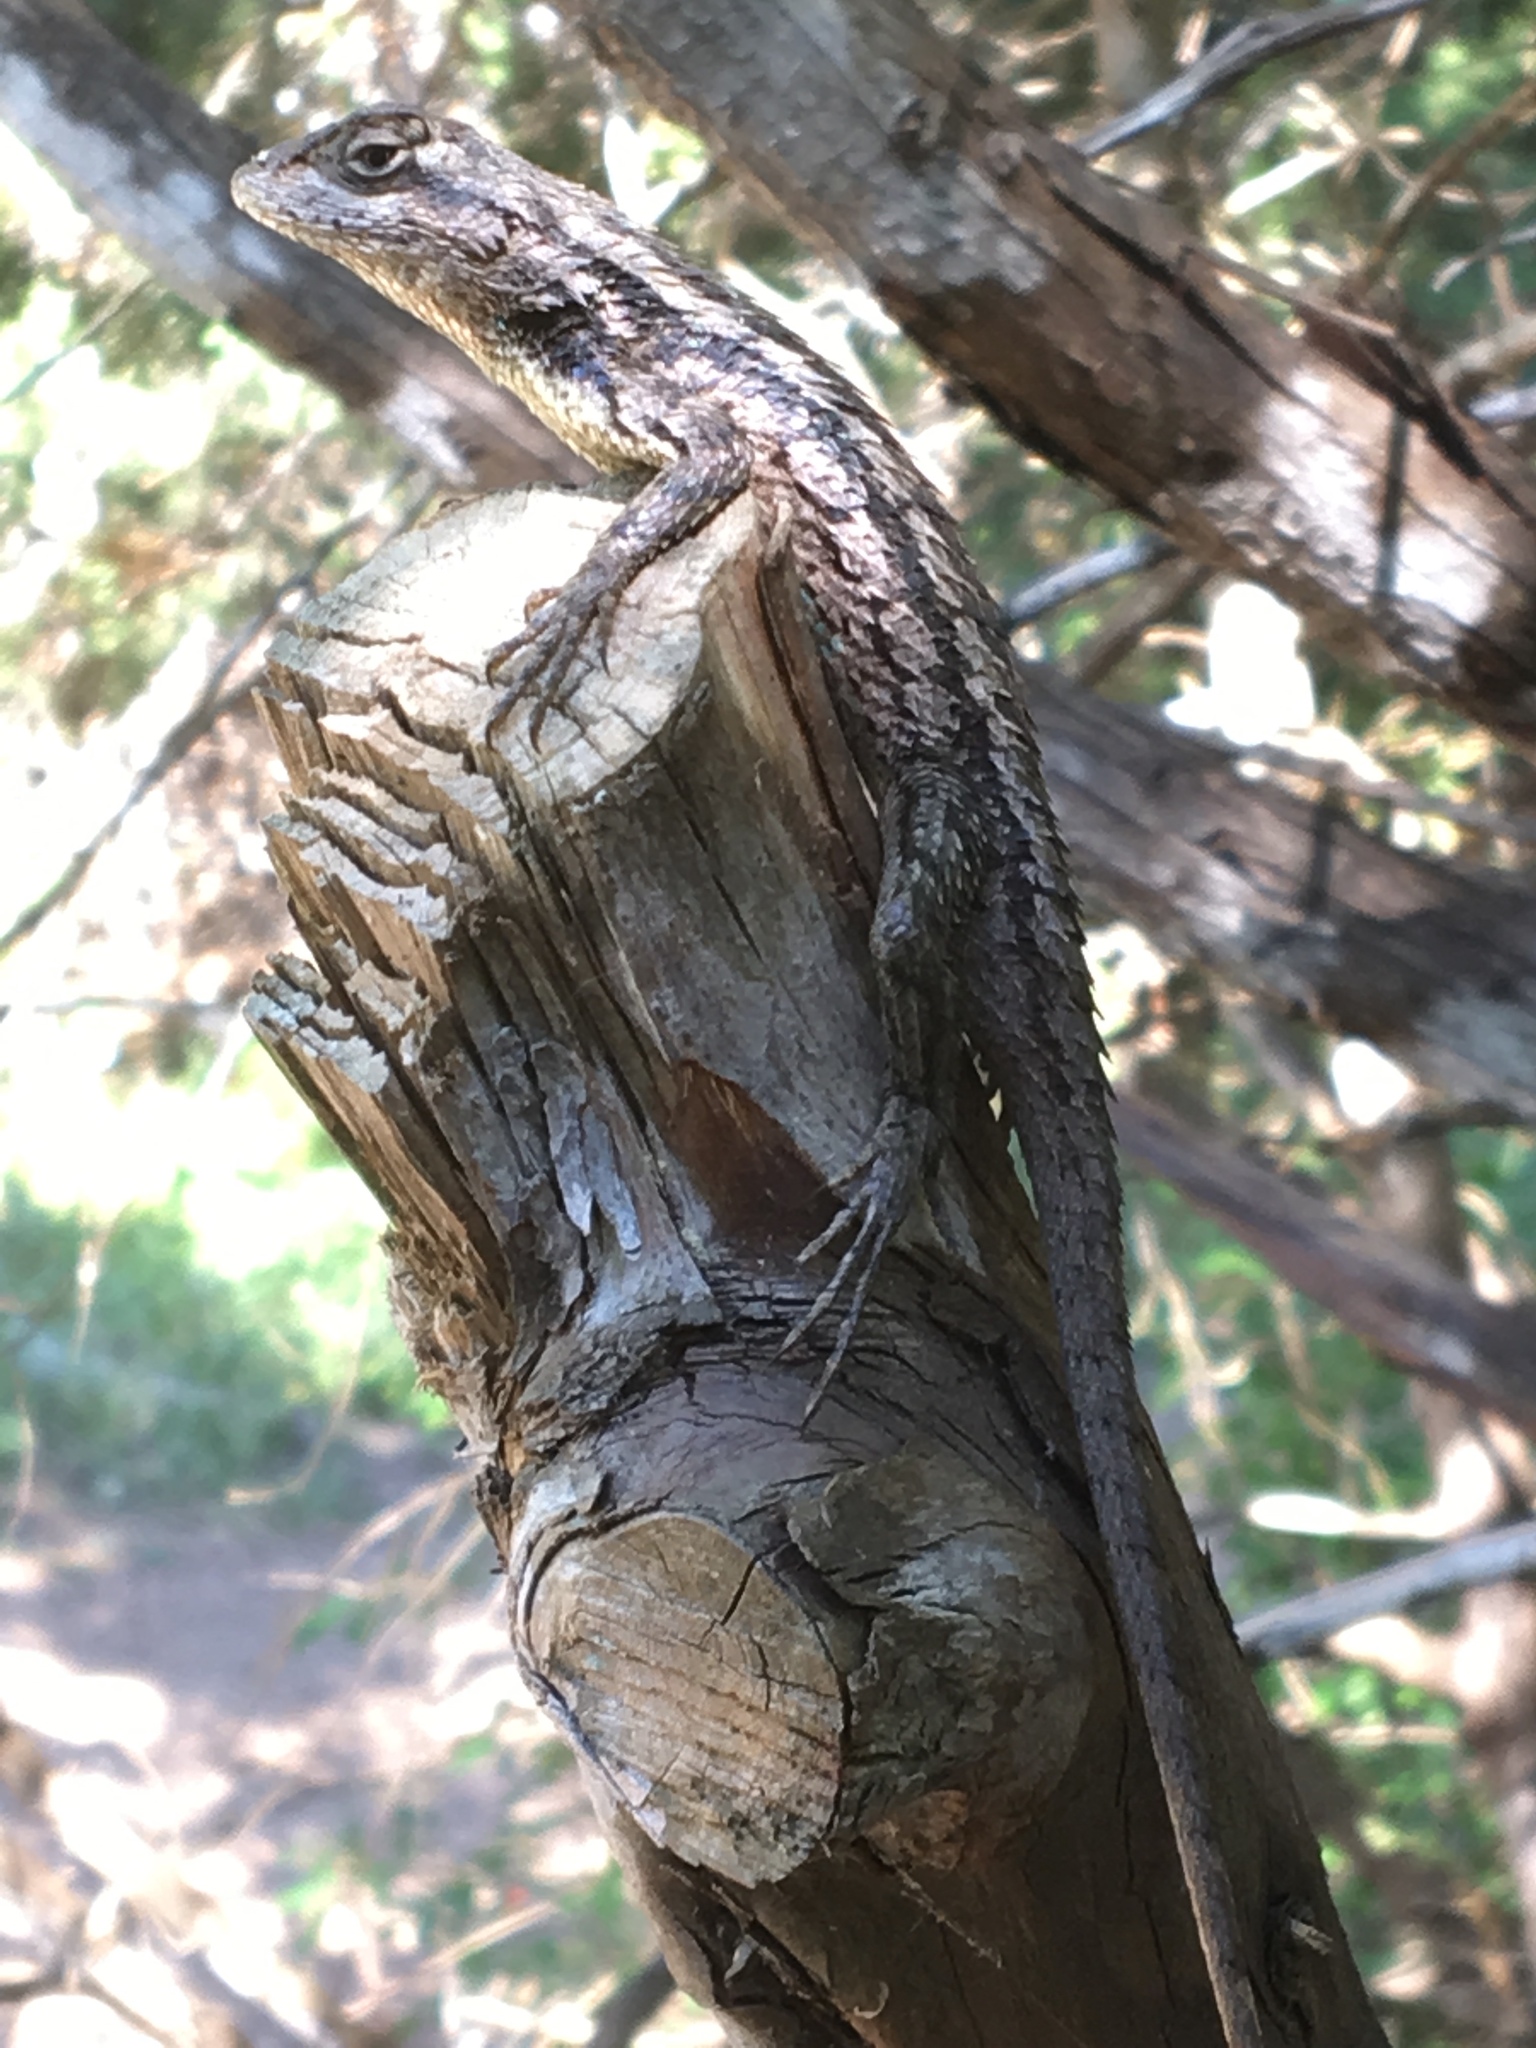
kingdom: Animalia
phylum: Chordata
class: Squamata
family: Phrynosomatidae
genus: Sceloporus
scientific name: Sceloporus olivaceus
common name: Texas spiny lizard
